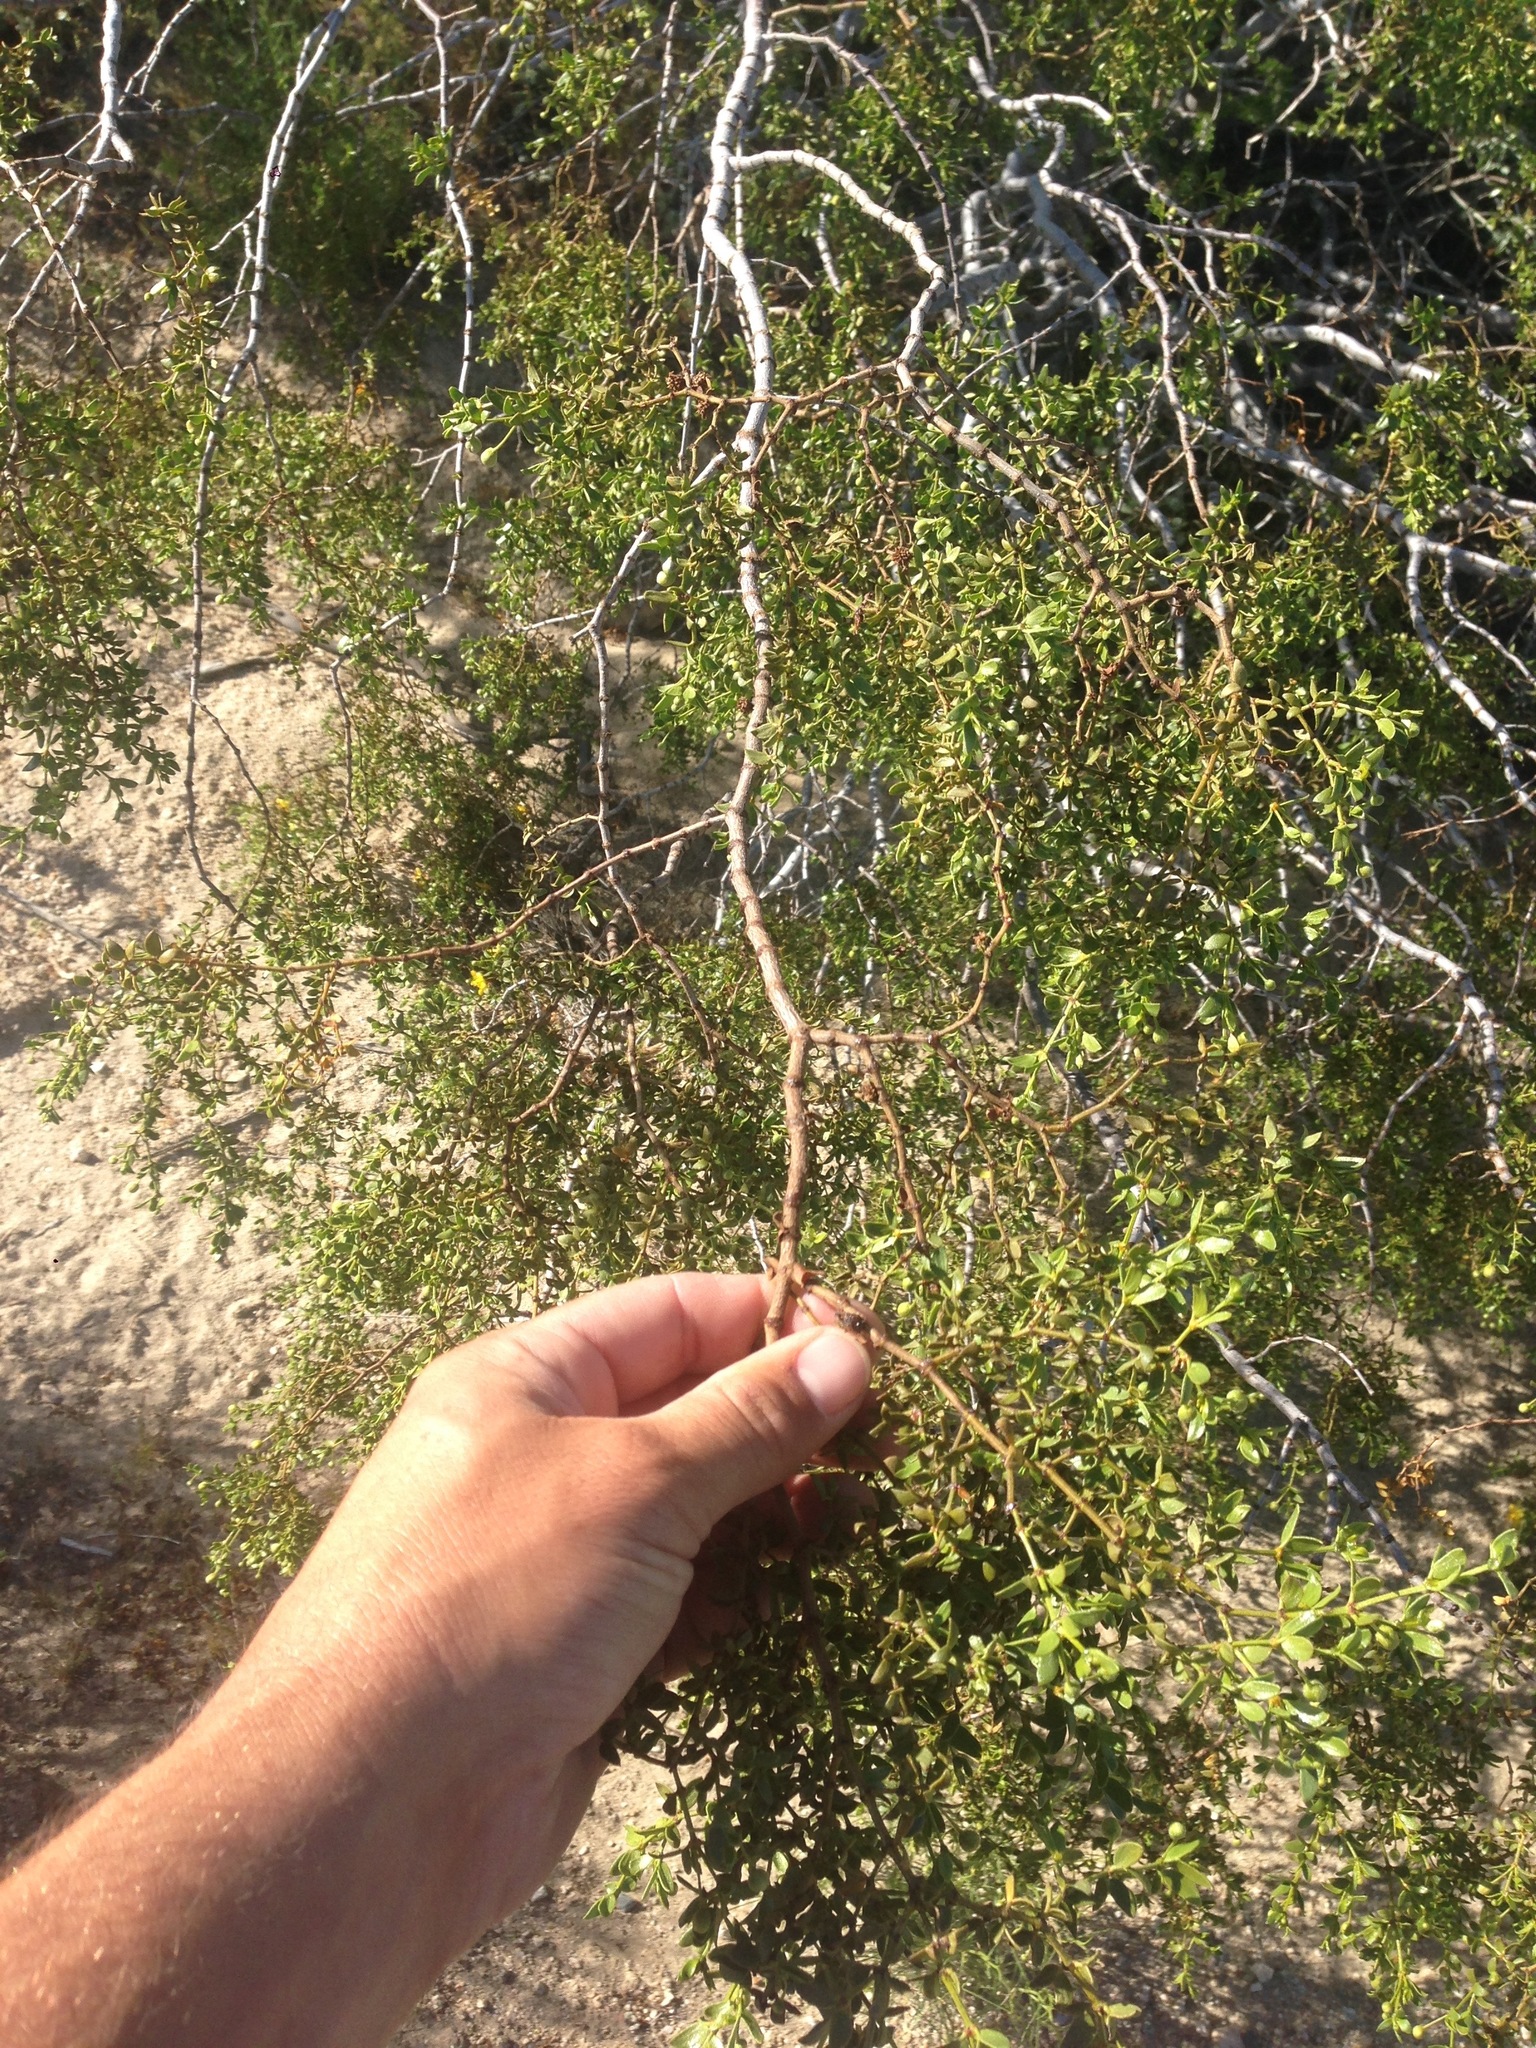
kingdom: Plantae
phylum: Tracheophyta
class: Magnoliopsida
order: Zygophyllales
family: Zygophyllaceae
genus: Larrea
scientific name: Larrea tridentata
